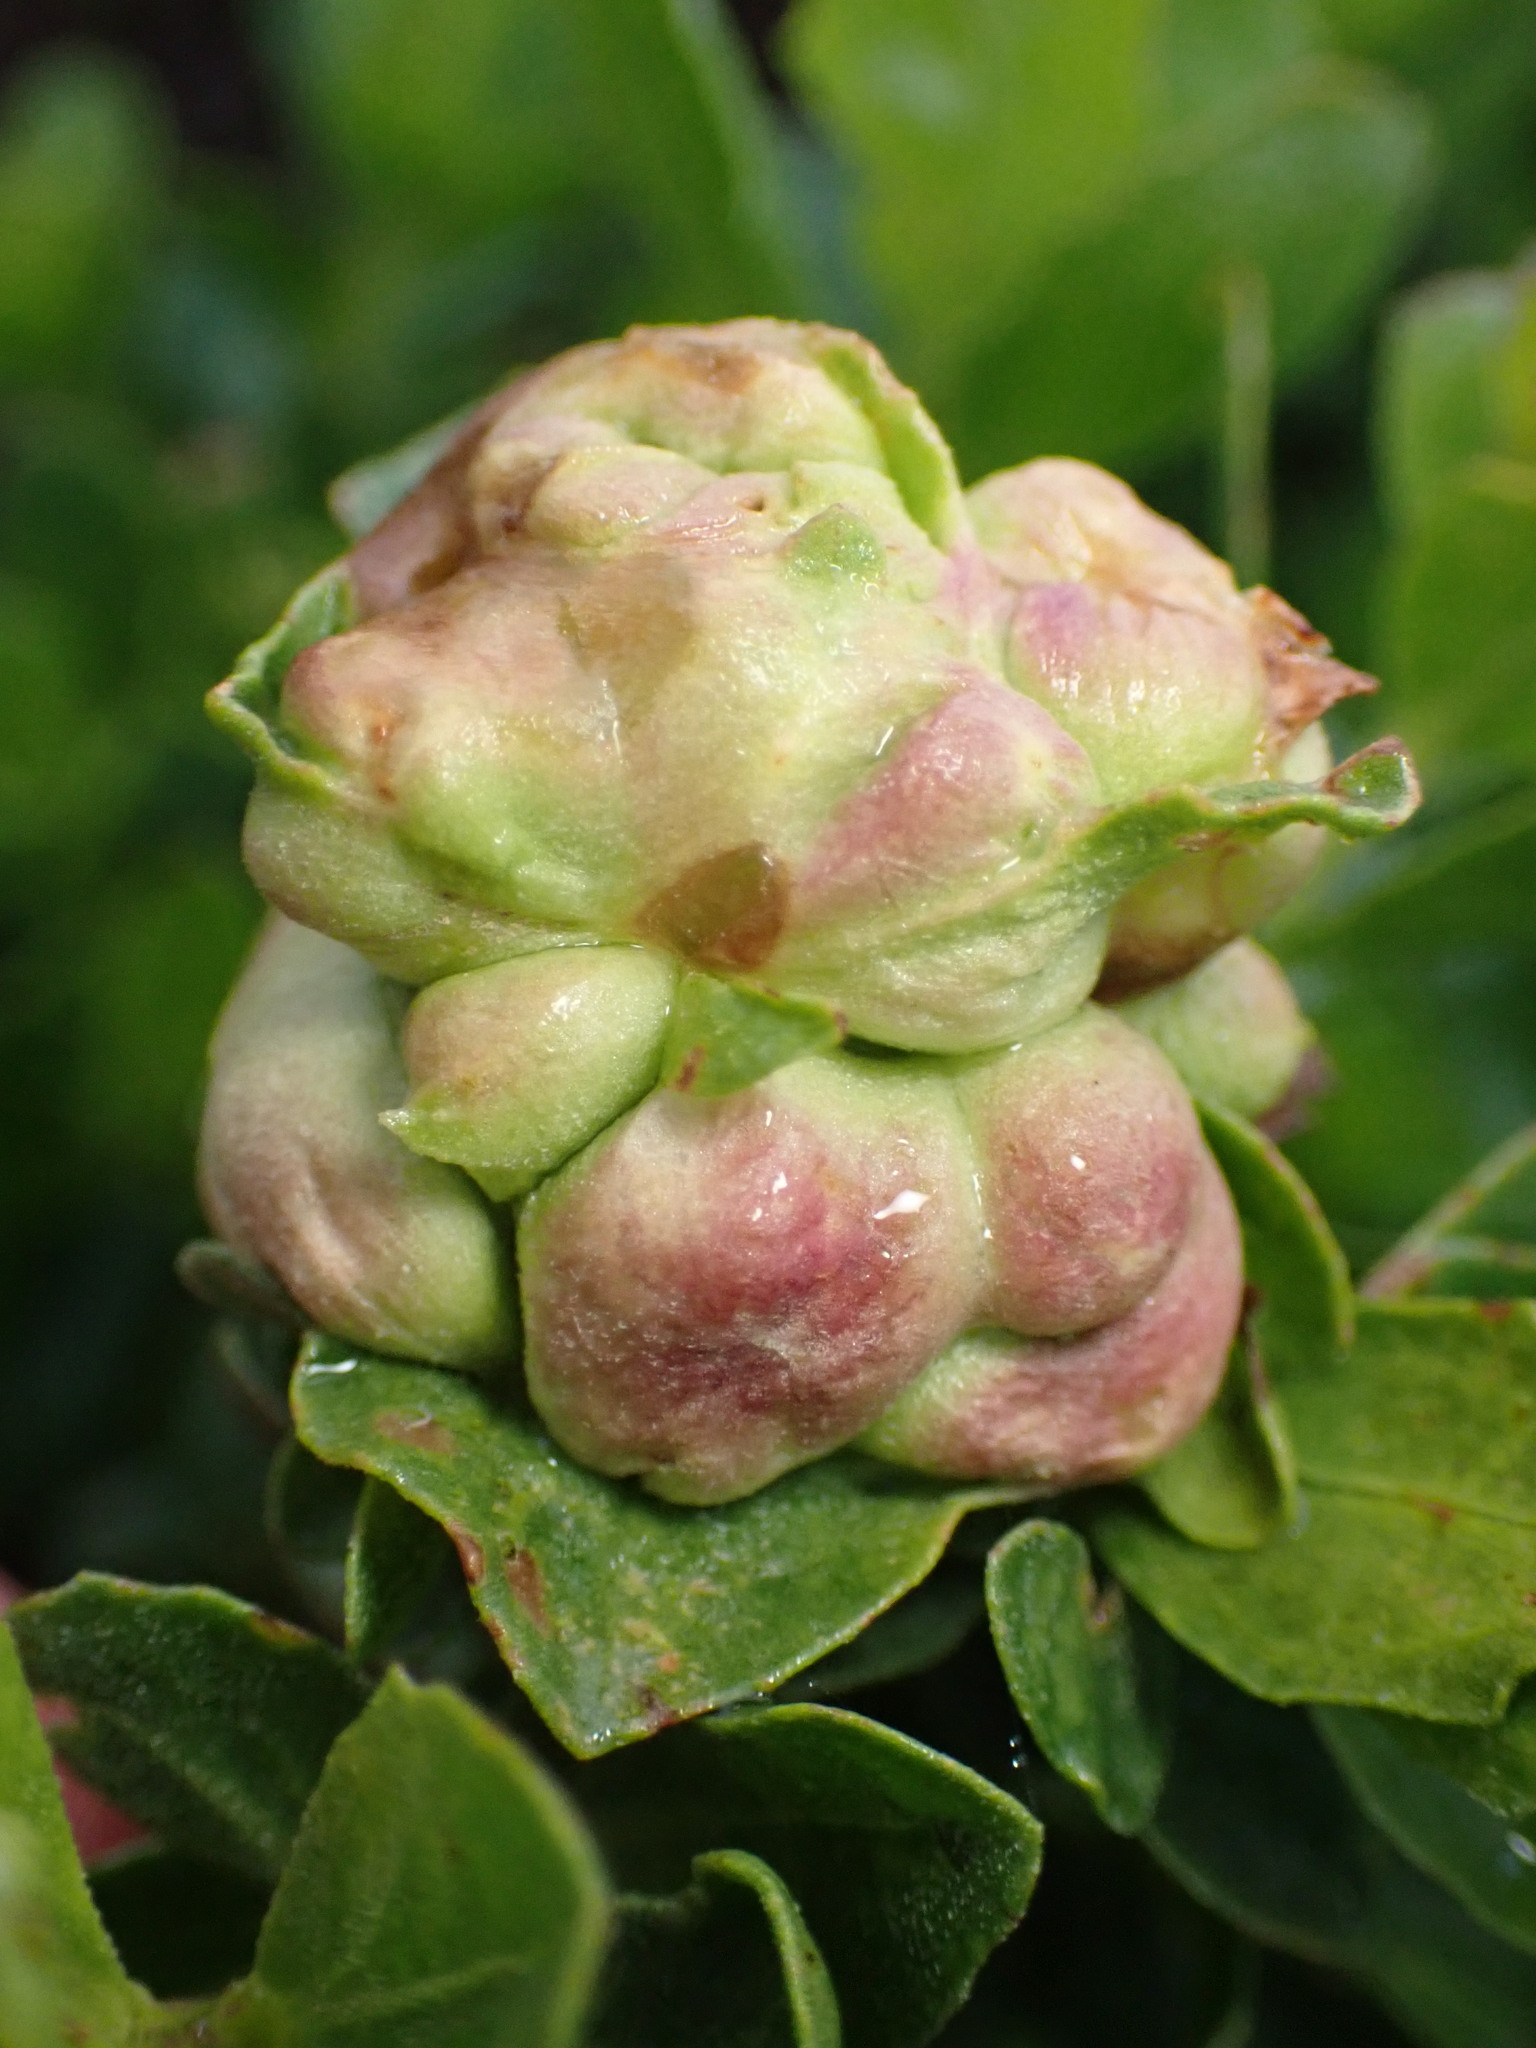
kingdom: Animalia
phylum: Arthropoda
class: Insecta
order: Diptera
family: Cecidomyiidae
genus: Rhopalomyia
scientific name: Rhopalomyia californica
